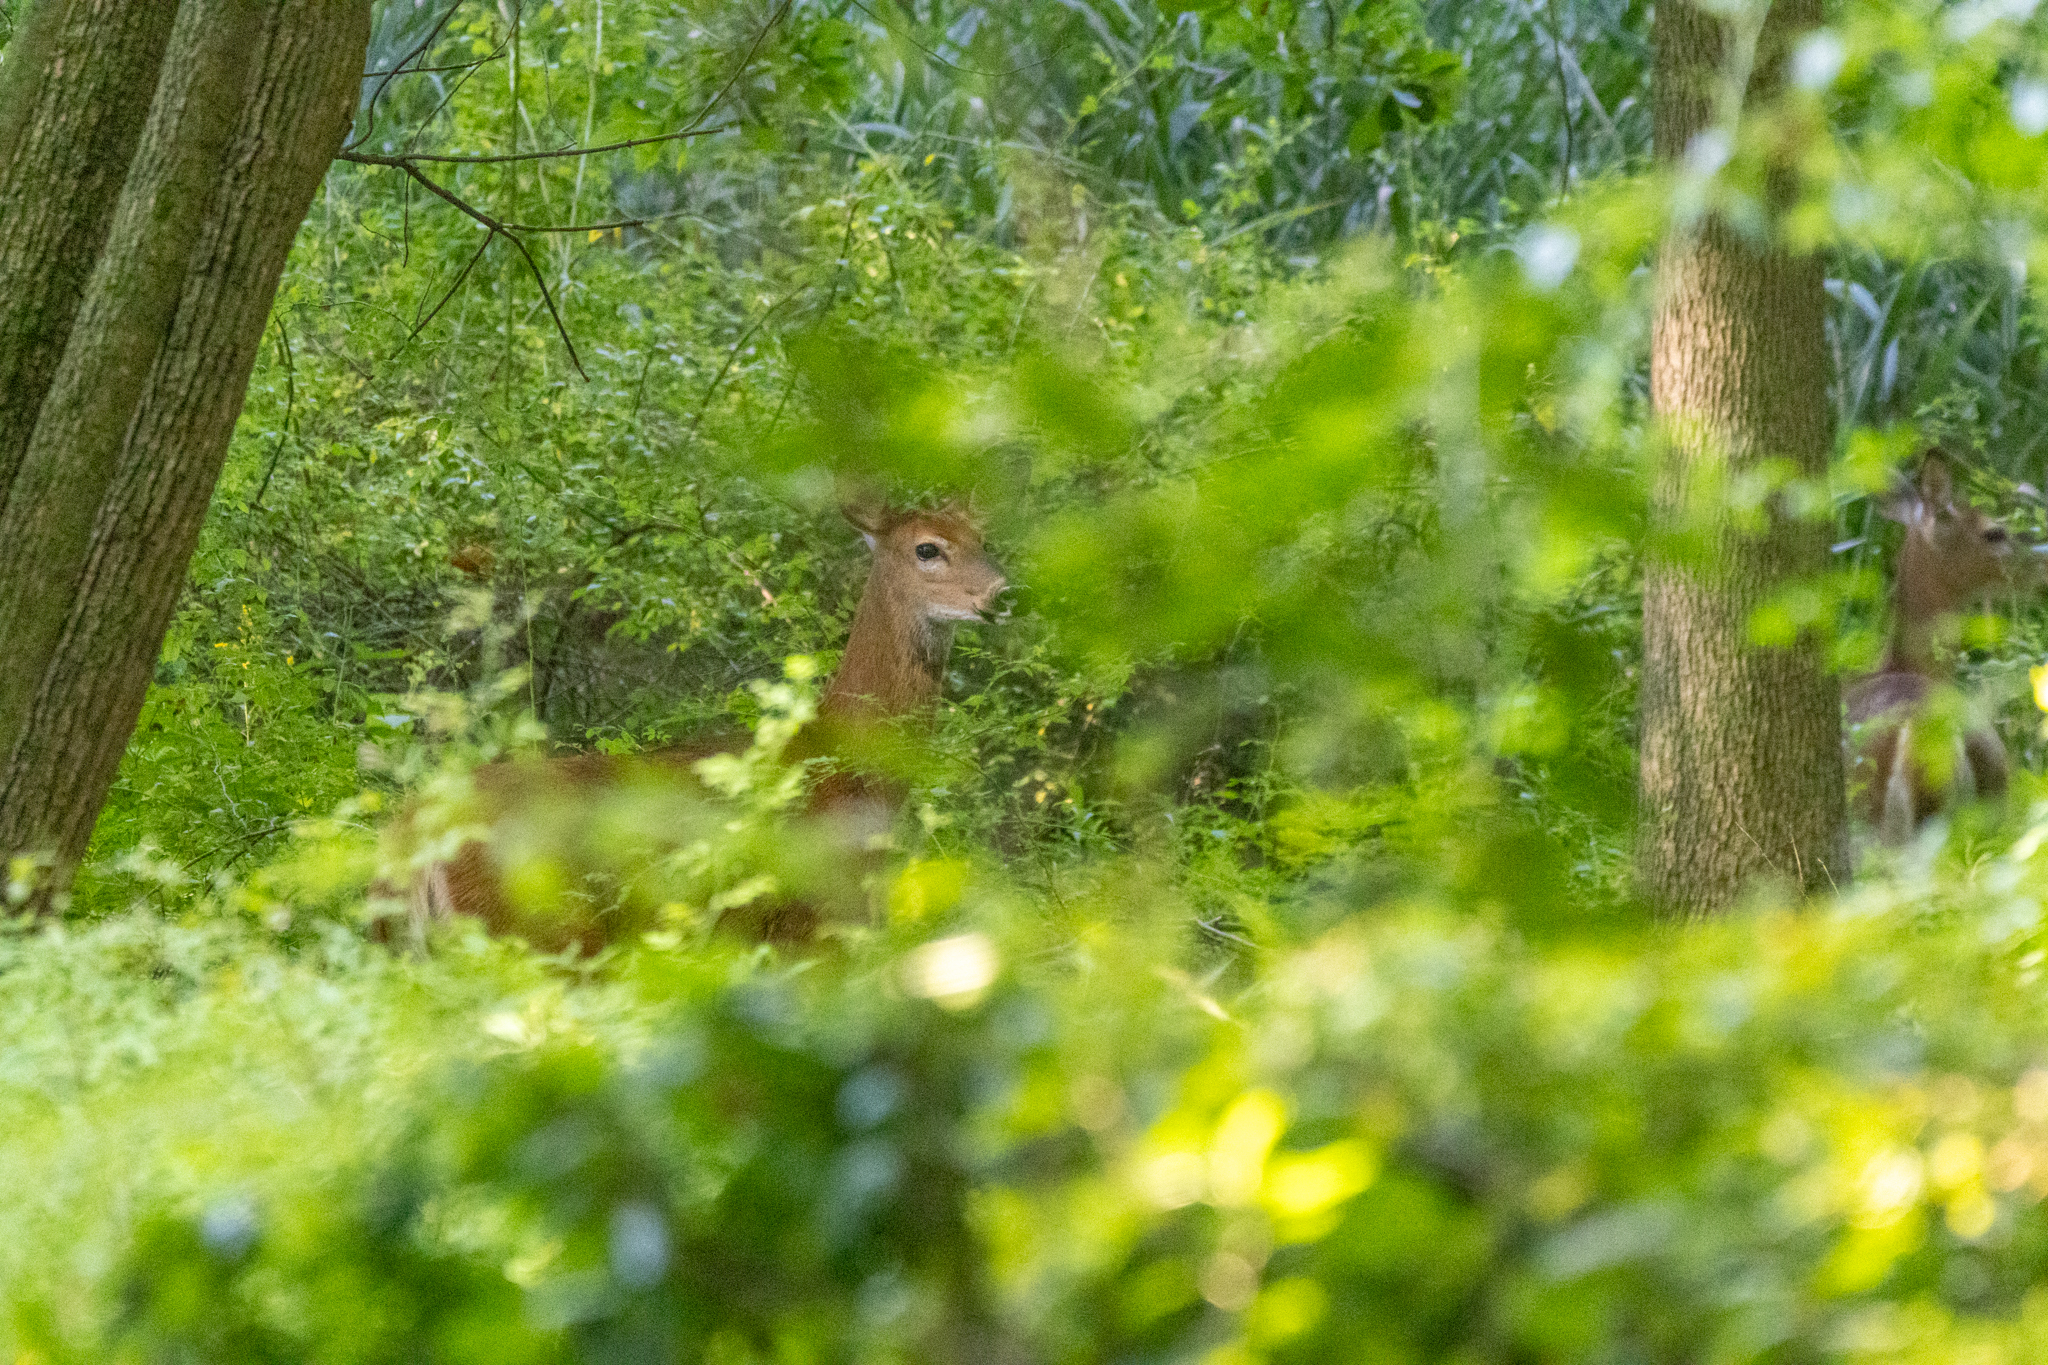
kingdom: Animalia
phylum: Chordata
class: Mammalia
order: Artiodactyla
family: Cervidae
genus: Odocoileus
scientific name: Odocoileus virginianus
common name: White-tailed deer
